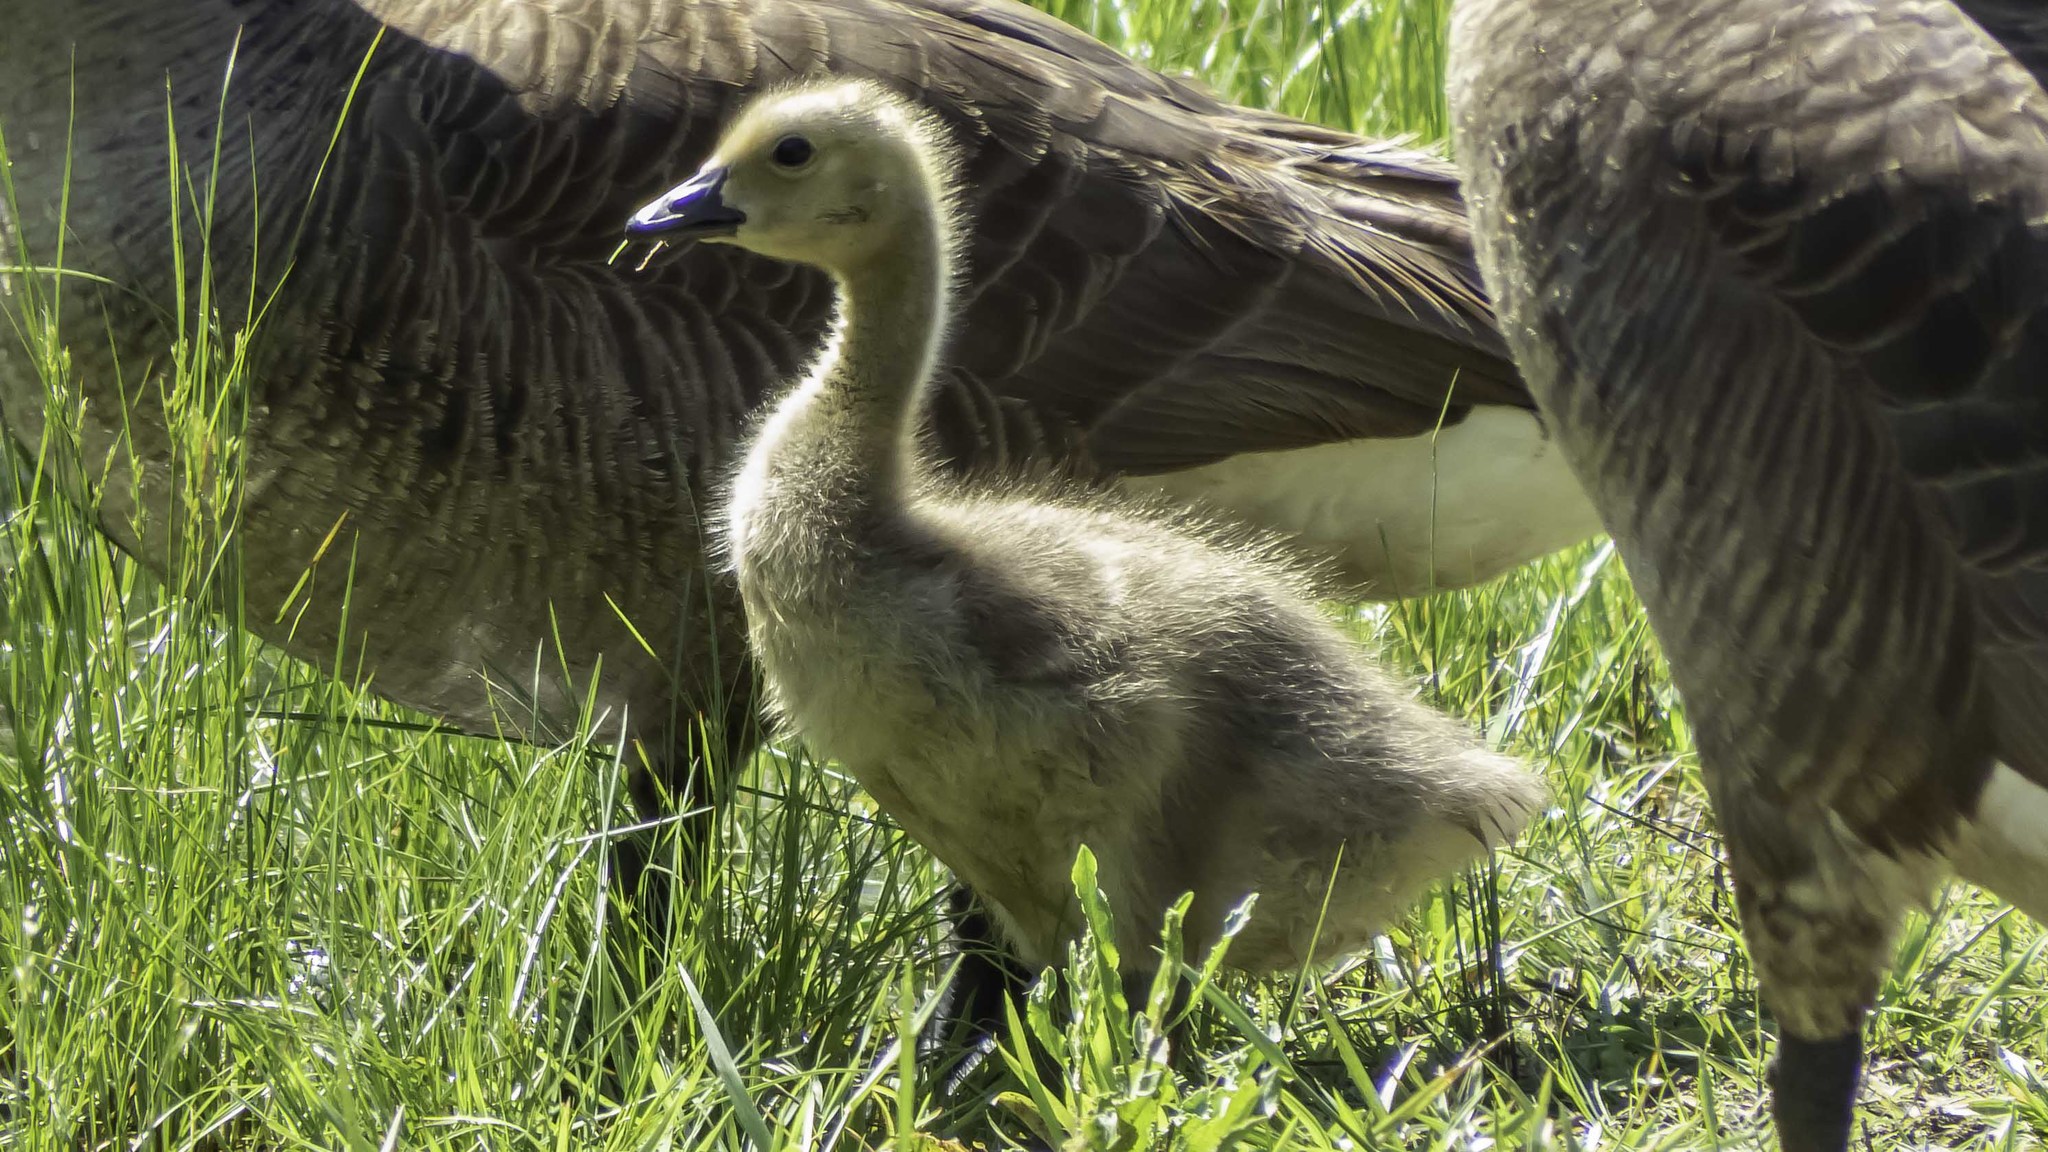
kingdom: Animalia
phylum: Chordata
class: Aves
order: Anseriformes
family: Anatidae
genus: Branta
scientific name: Branta canadensis
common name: Canada goose
